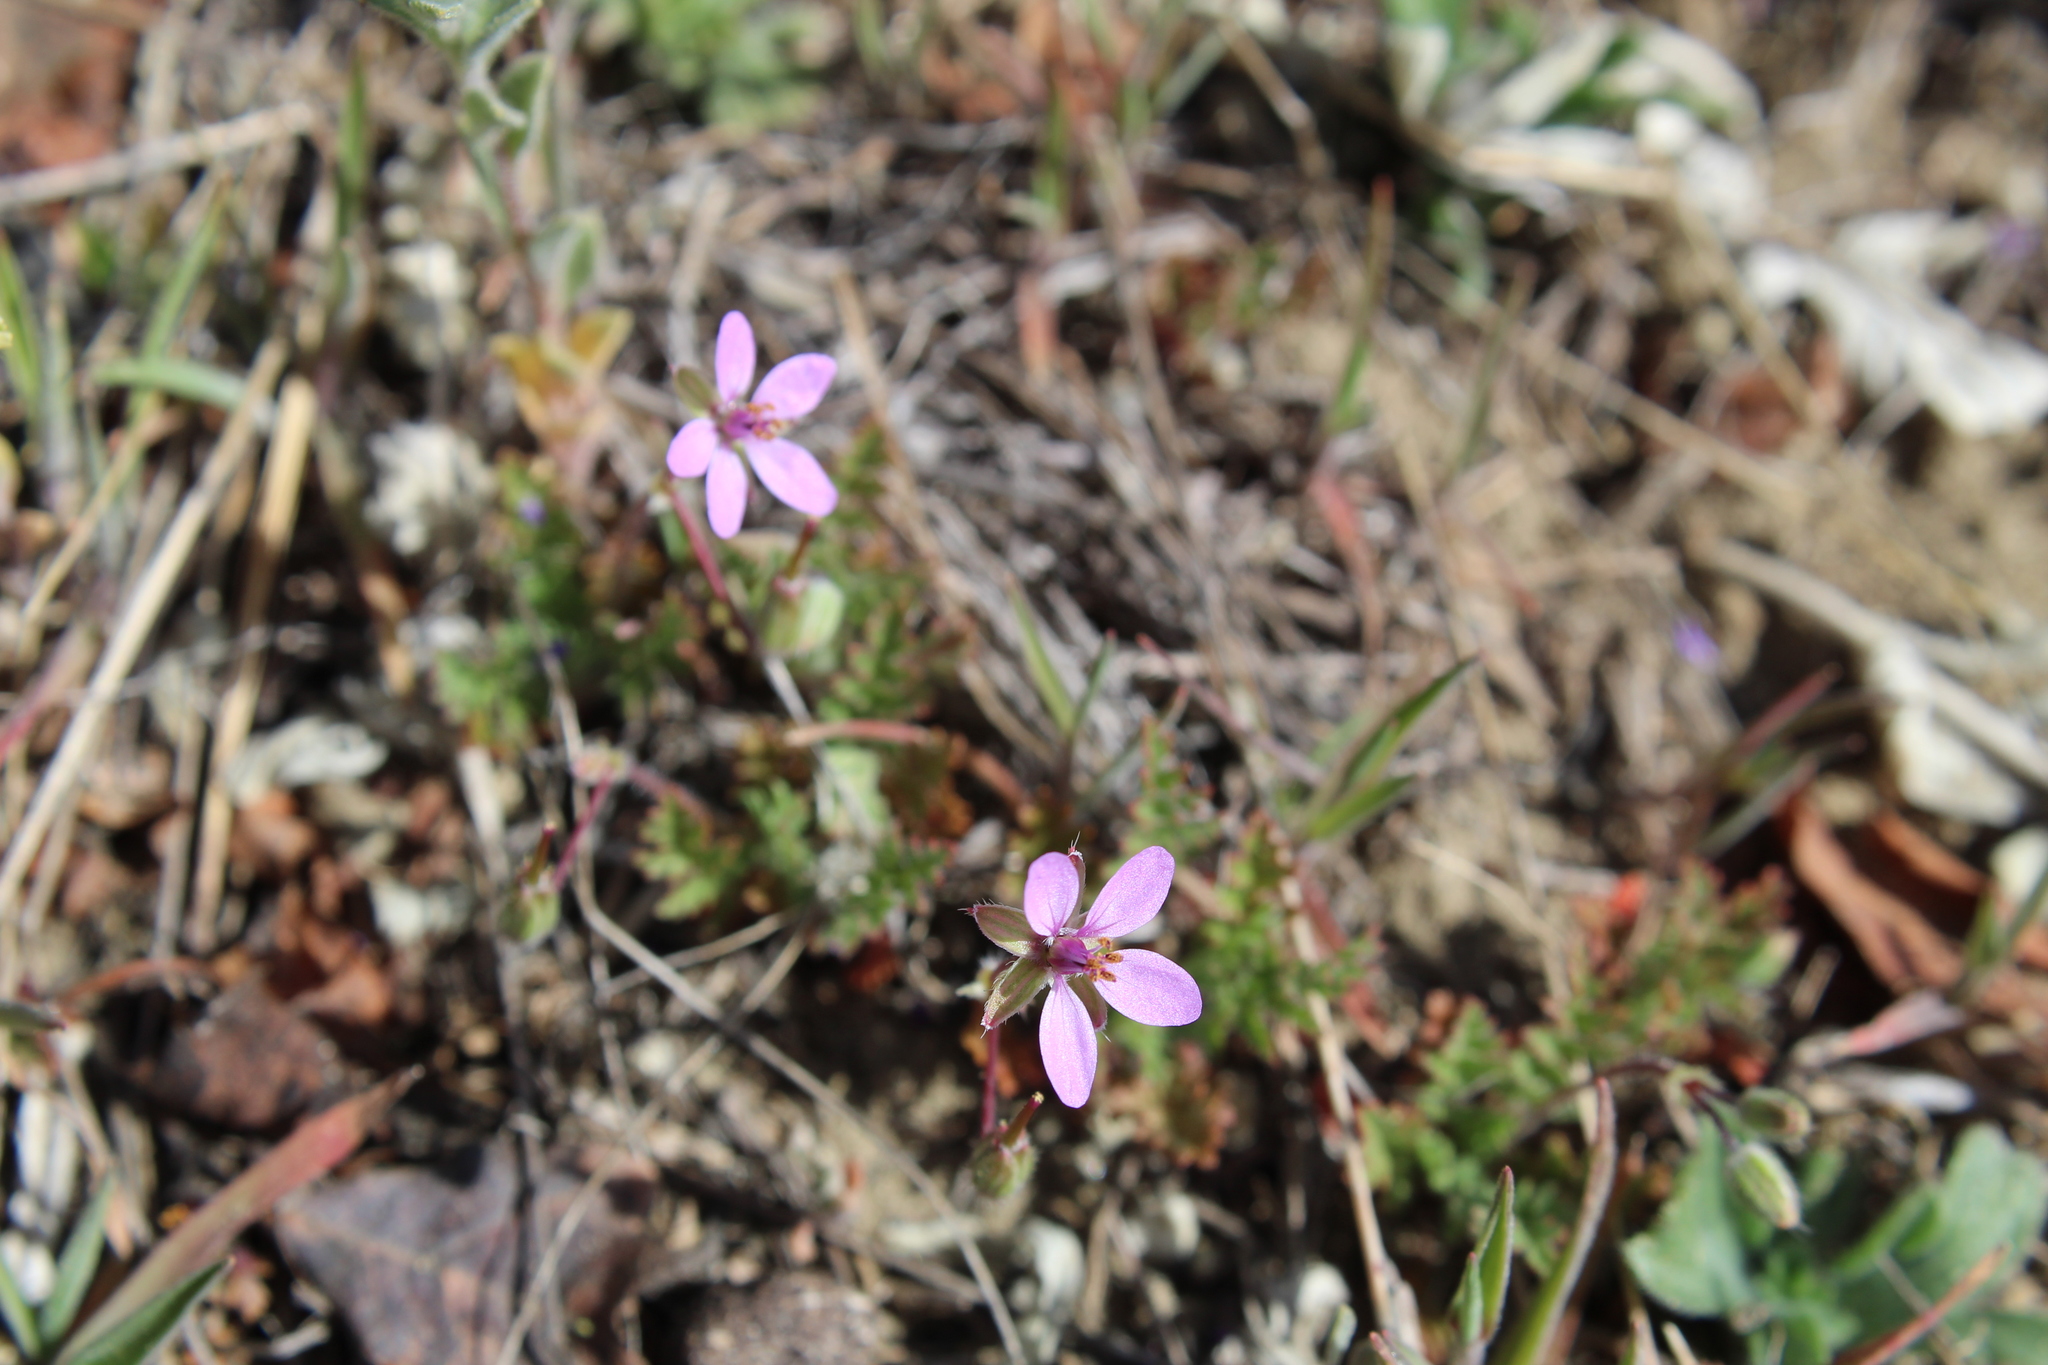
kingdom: Plantae
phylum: Tracheophyta
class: Magnoliopsida
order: Geraniales
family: Geraniaceae
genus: Erodium
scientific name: Erodium cicutarium
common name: Common stork's-bill
